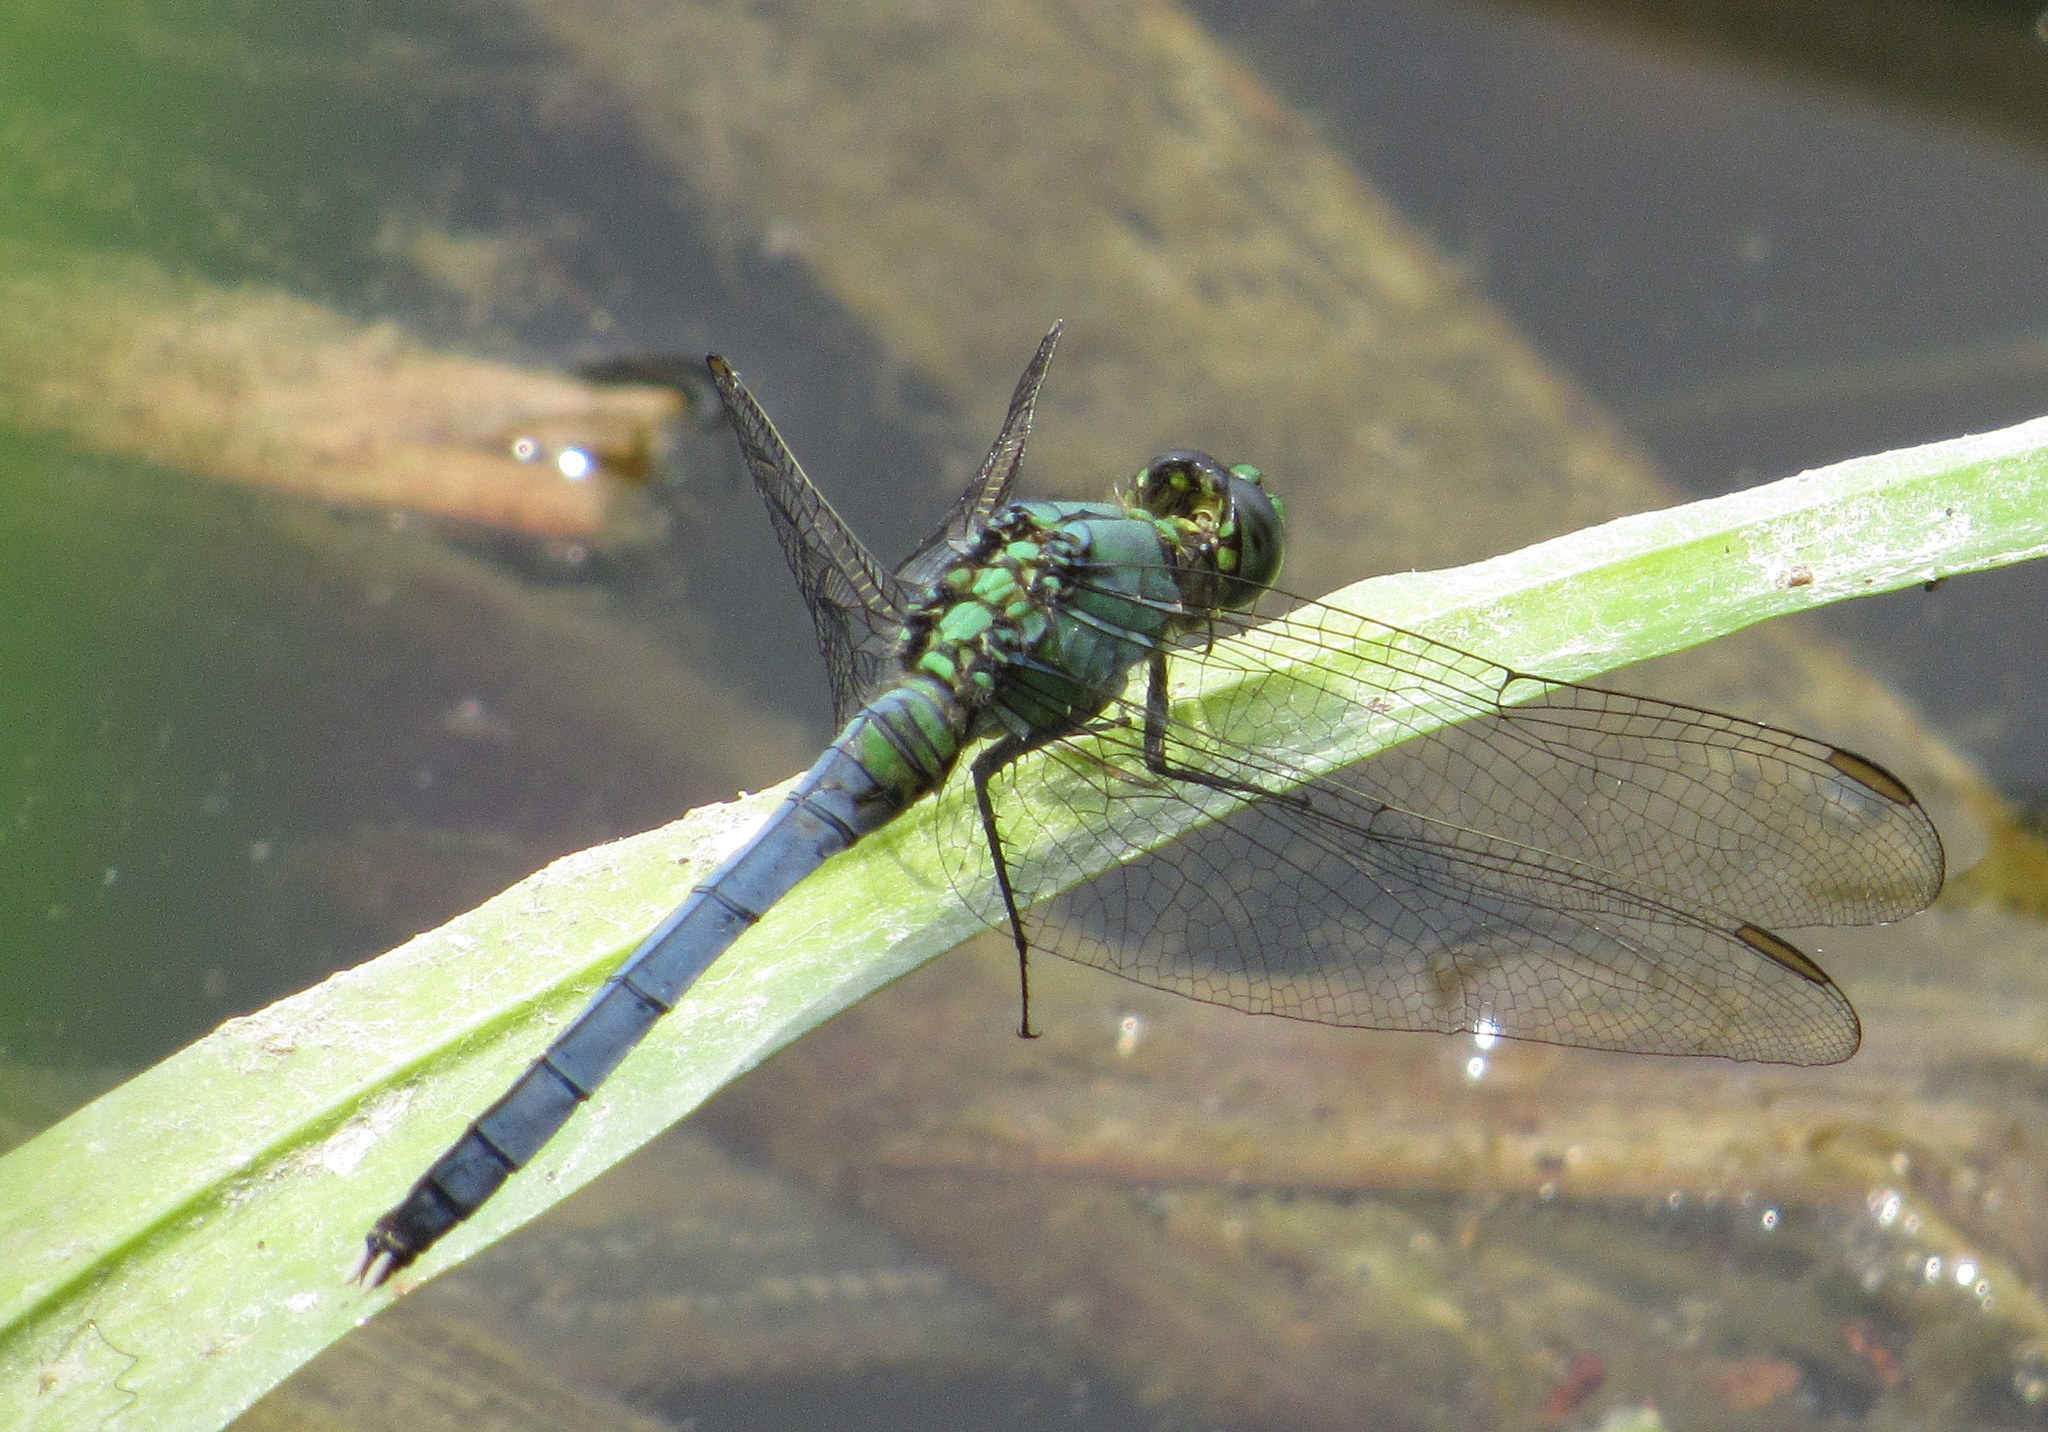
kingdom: Animalia
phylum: Arthropoda
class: Insecta
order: Odonata
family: Libellulidae
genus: Erythemis
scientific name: Erythemis simplicicollis
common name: Eastern pondhawk
